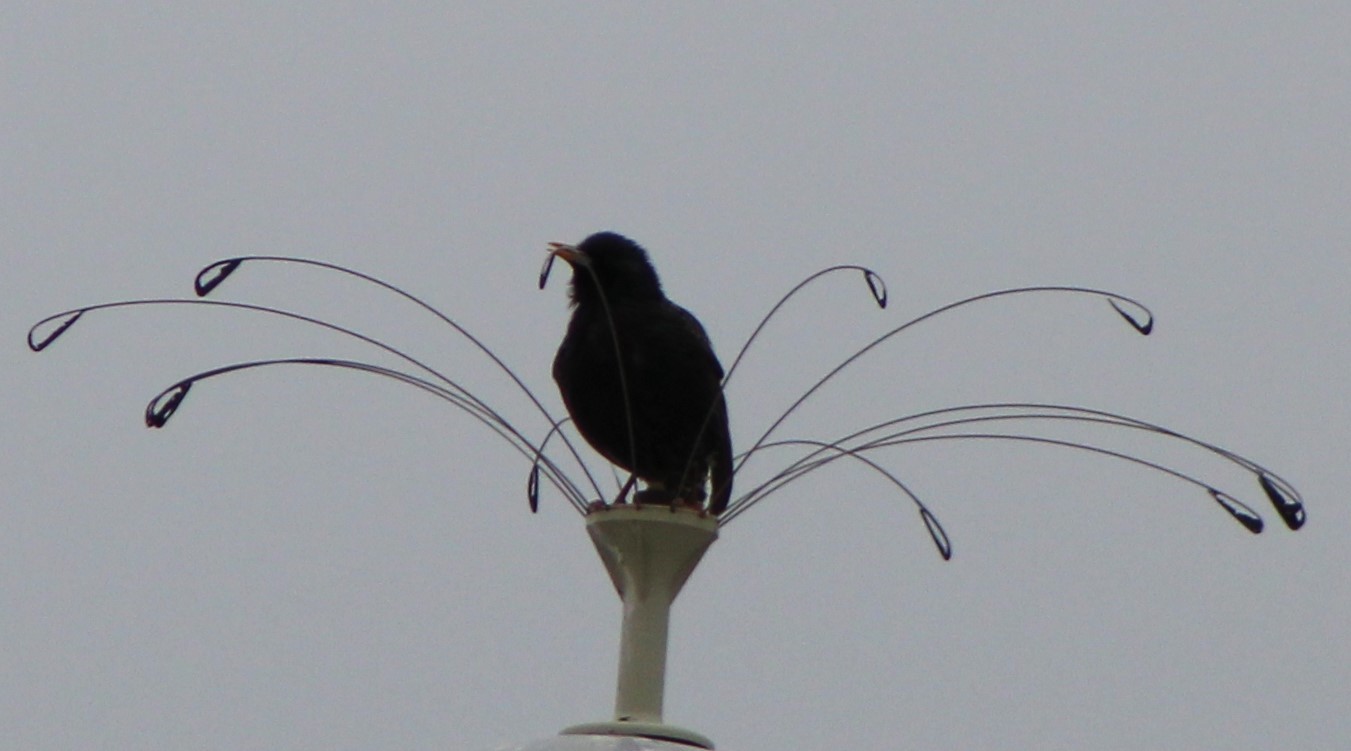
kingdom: Animalia
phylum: Chordata
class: Aves
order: Passeriformes
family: Sturnidae
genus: Sturnus
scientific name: Sturnus vulgaris
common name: Common starling
